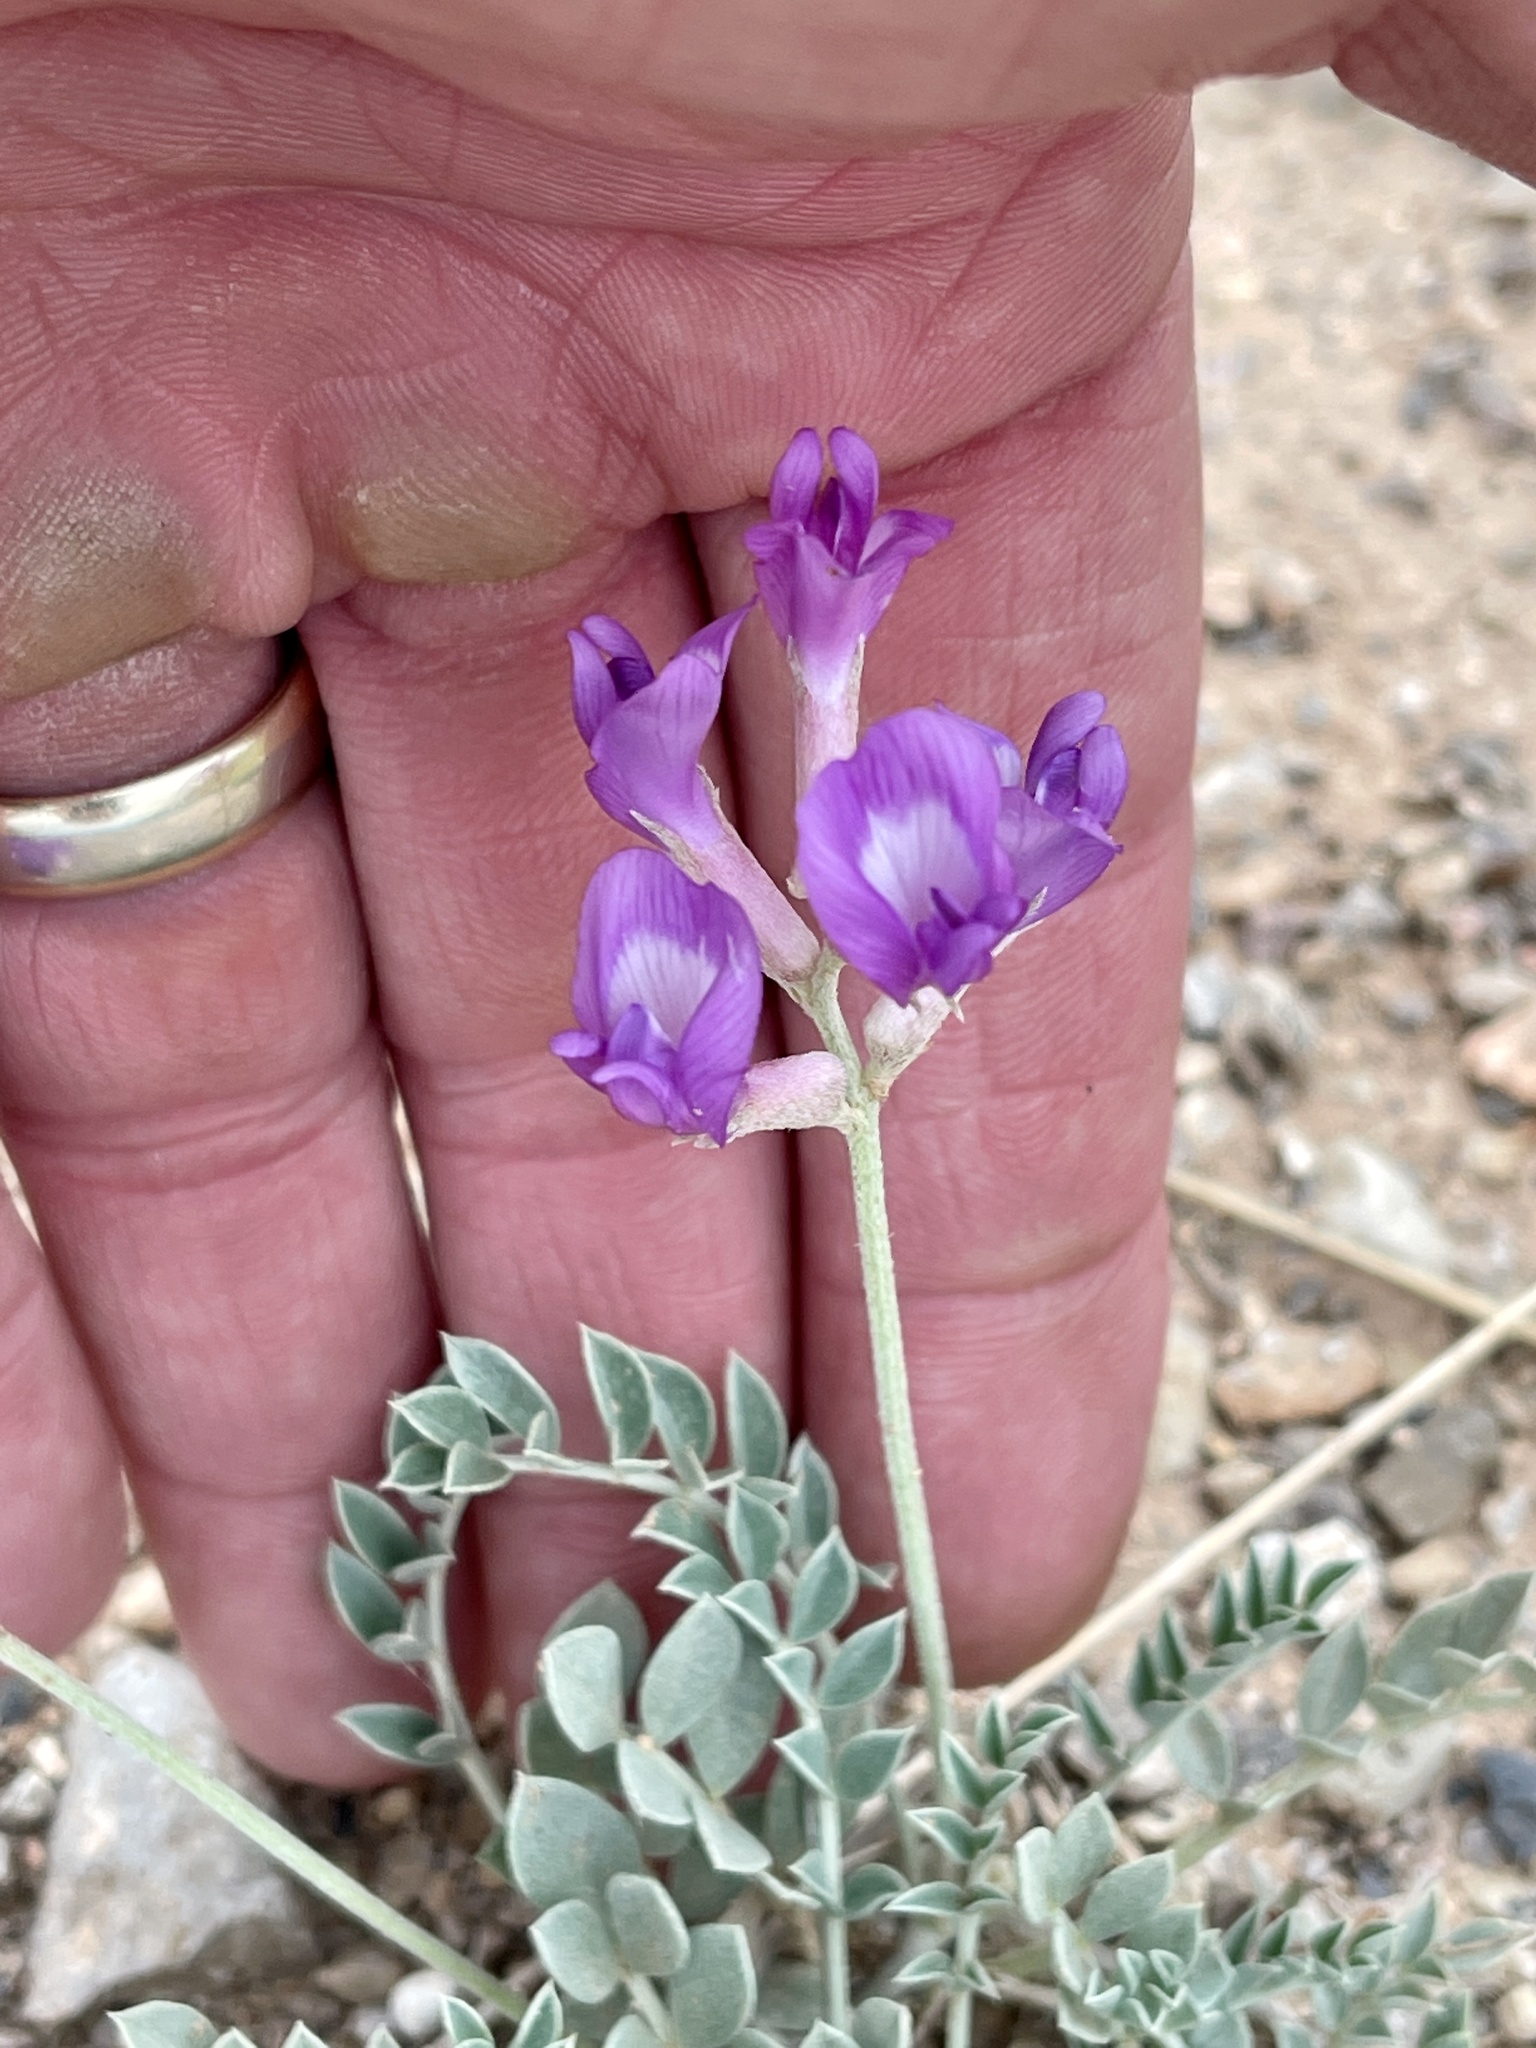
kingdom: Plantae
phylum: Tracheophyta
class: Magnoliopsida
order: Fabales
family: Fabaceae
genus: Astragalus
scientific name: Astragalus missouriensis
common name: Missouri milk-vetch
